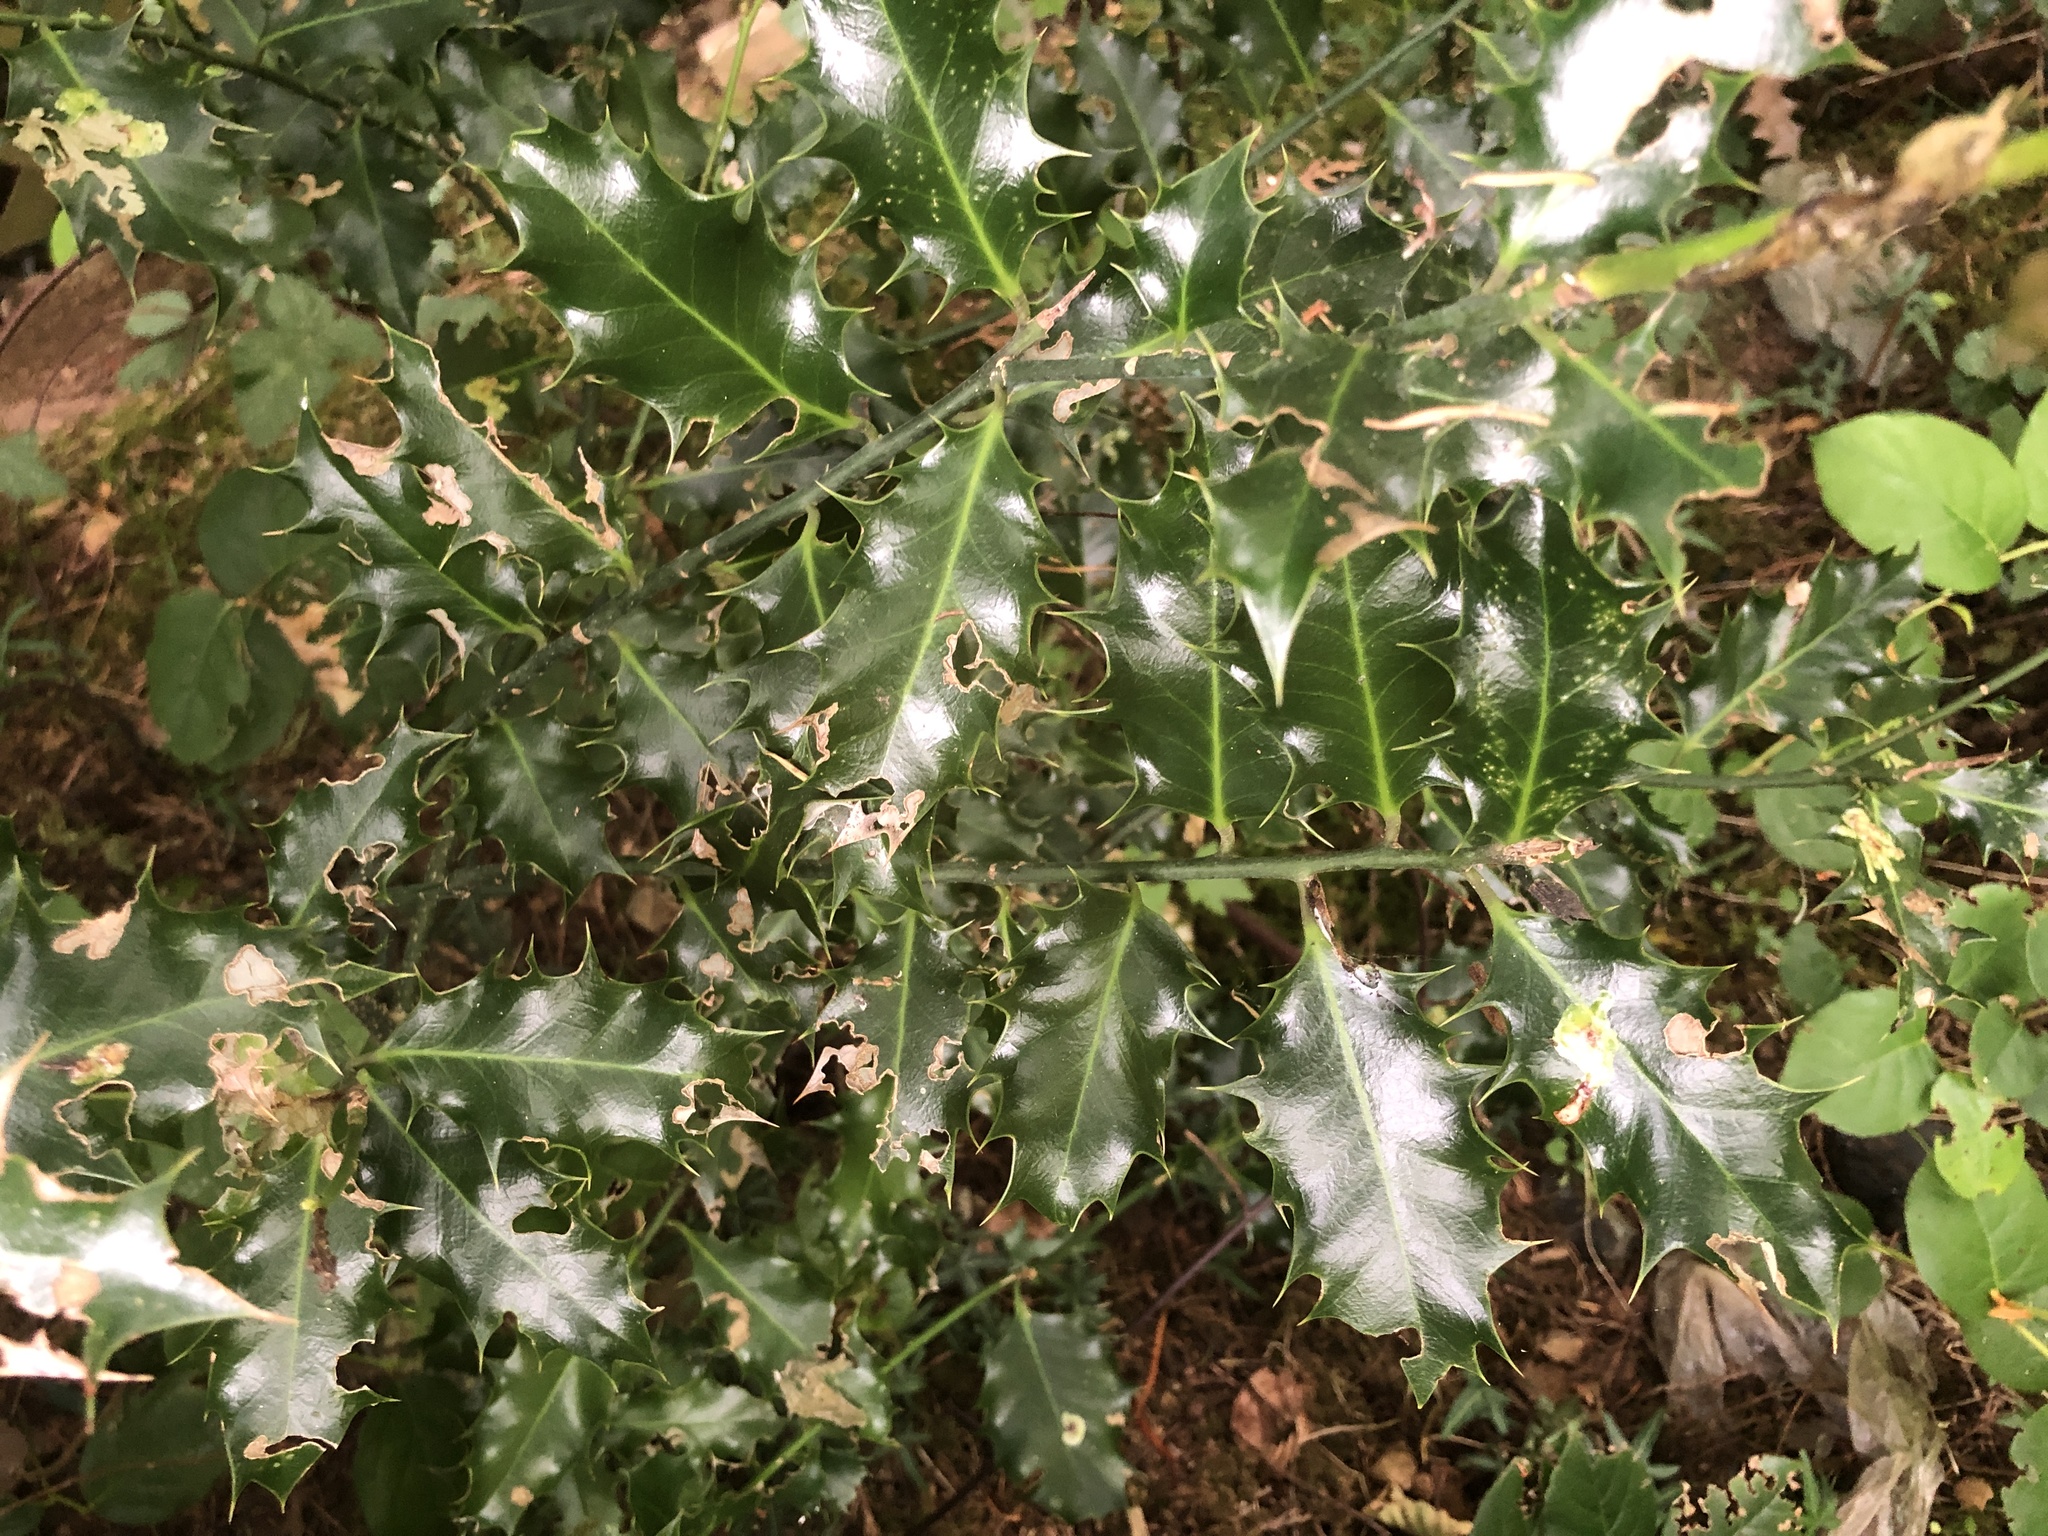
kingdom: Plantae
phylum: Tracheophyta
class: Magnoliopsida
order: Aquifoliales
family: Aquifoliaceae
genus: Ilex
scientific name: Ilex aquifolium
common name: English holly
